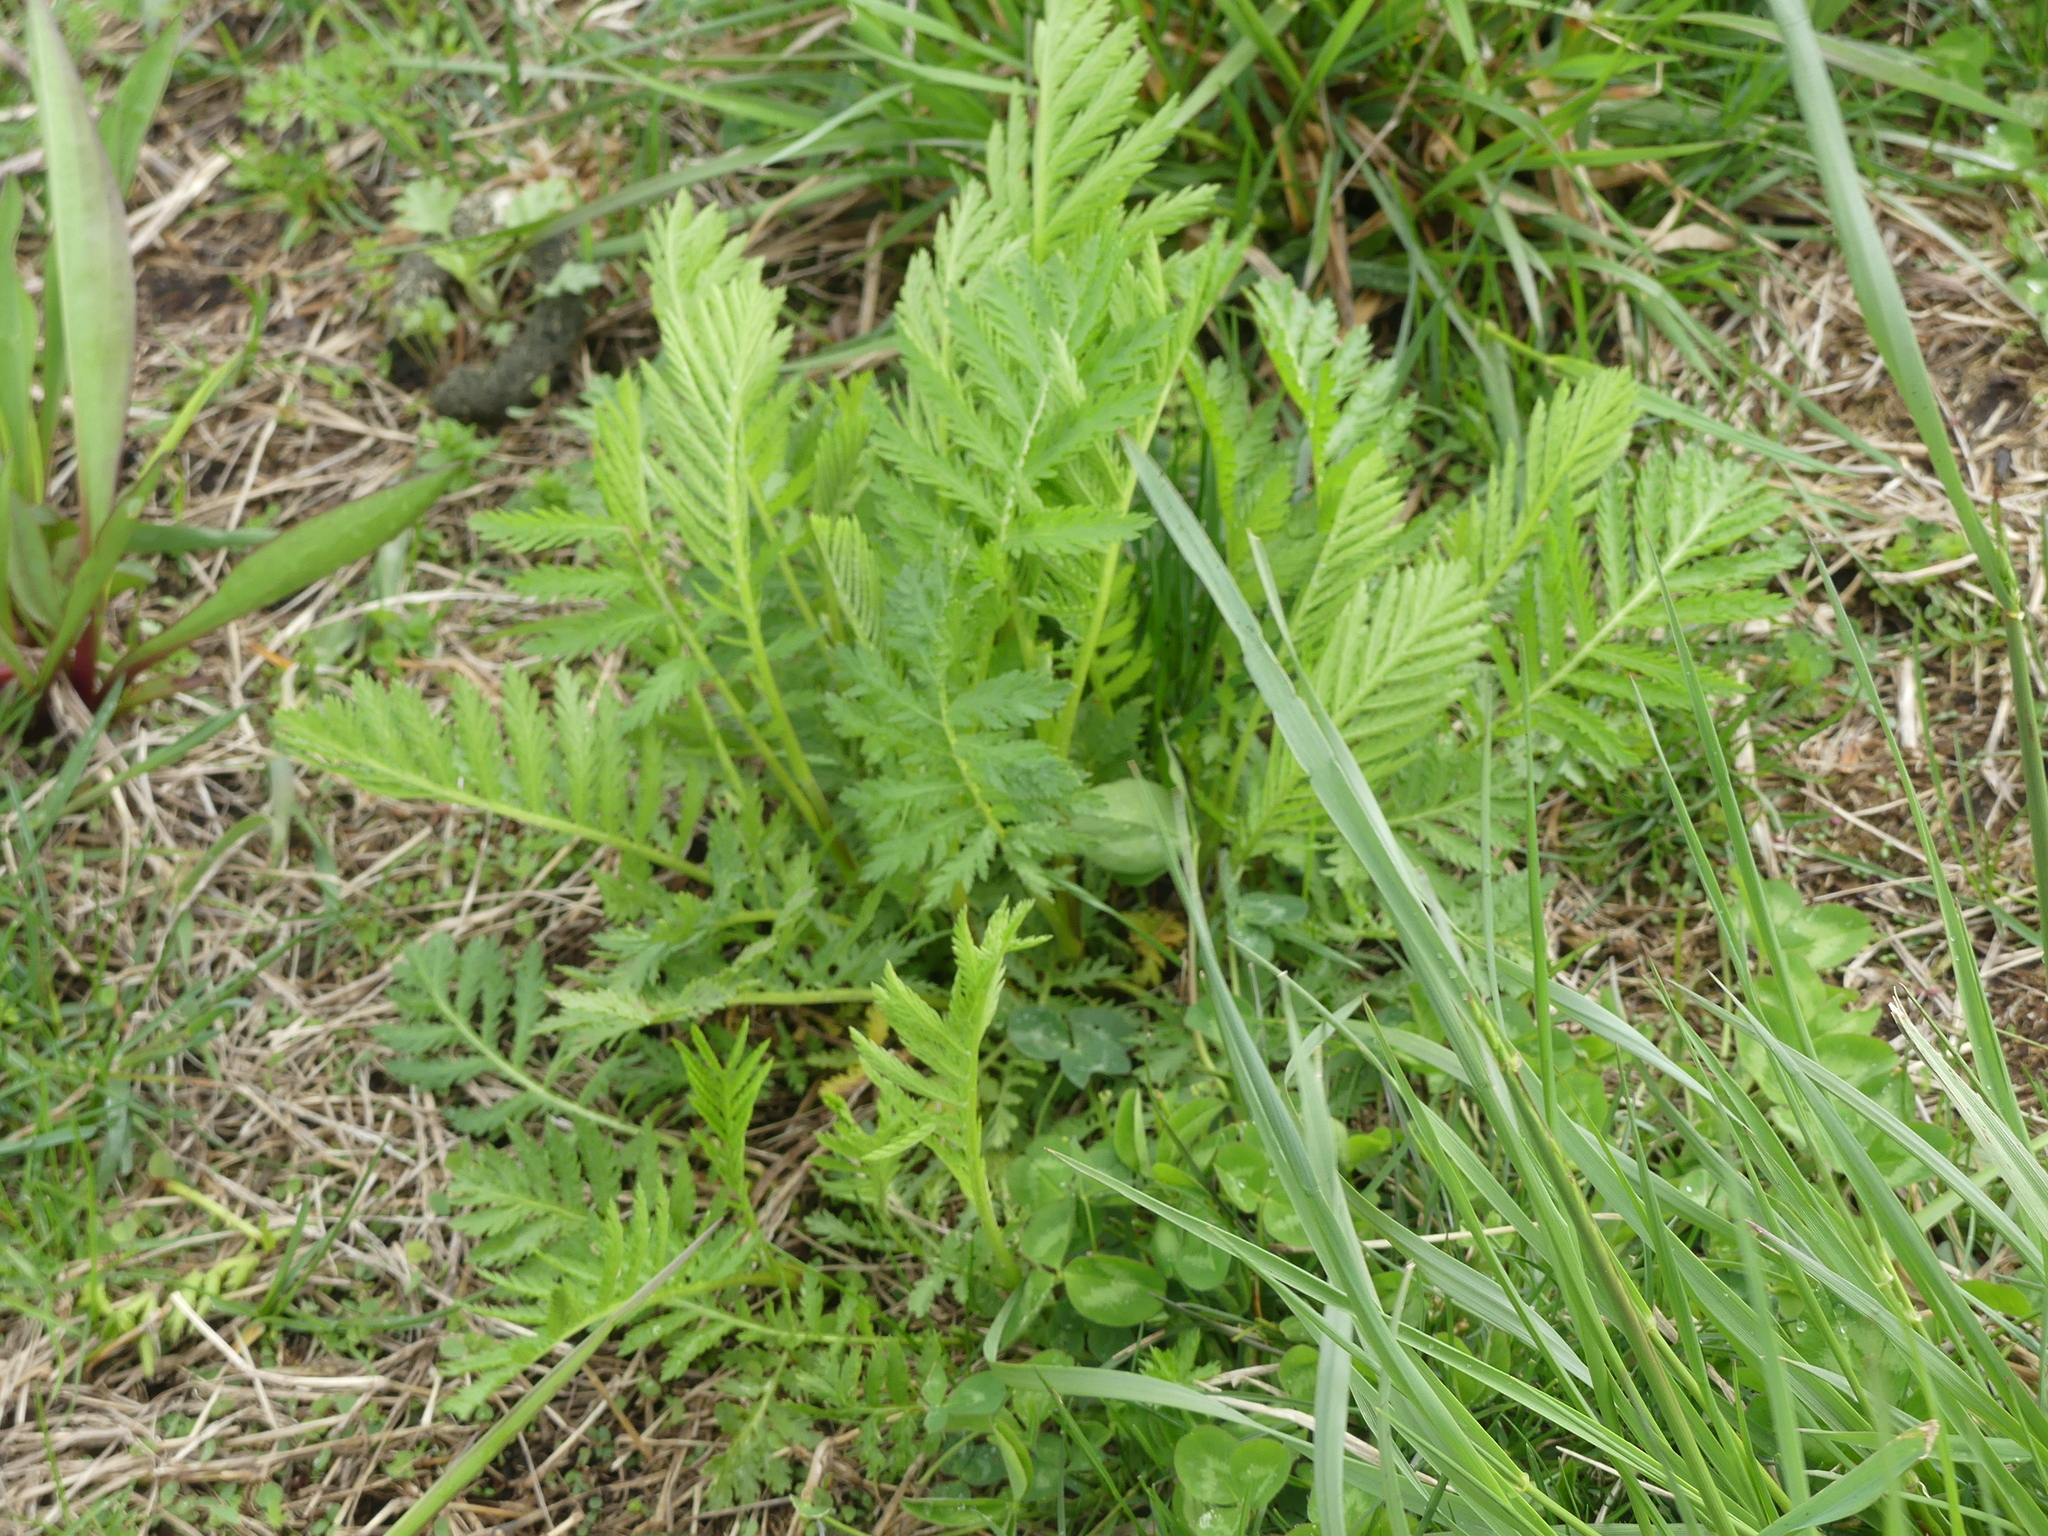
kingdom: Plantae
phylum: Tracheophyta
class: Magnoliopsida
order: Asterales
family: Asteraceae
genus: Tanacetum
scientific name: Tanacetum vulgare
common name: Common tansy
